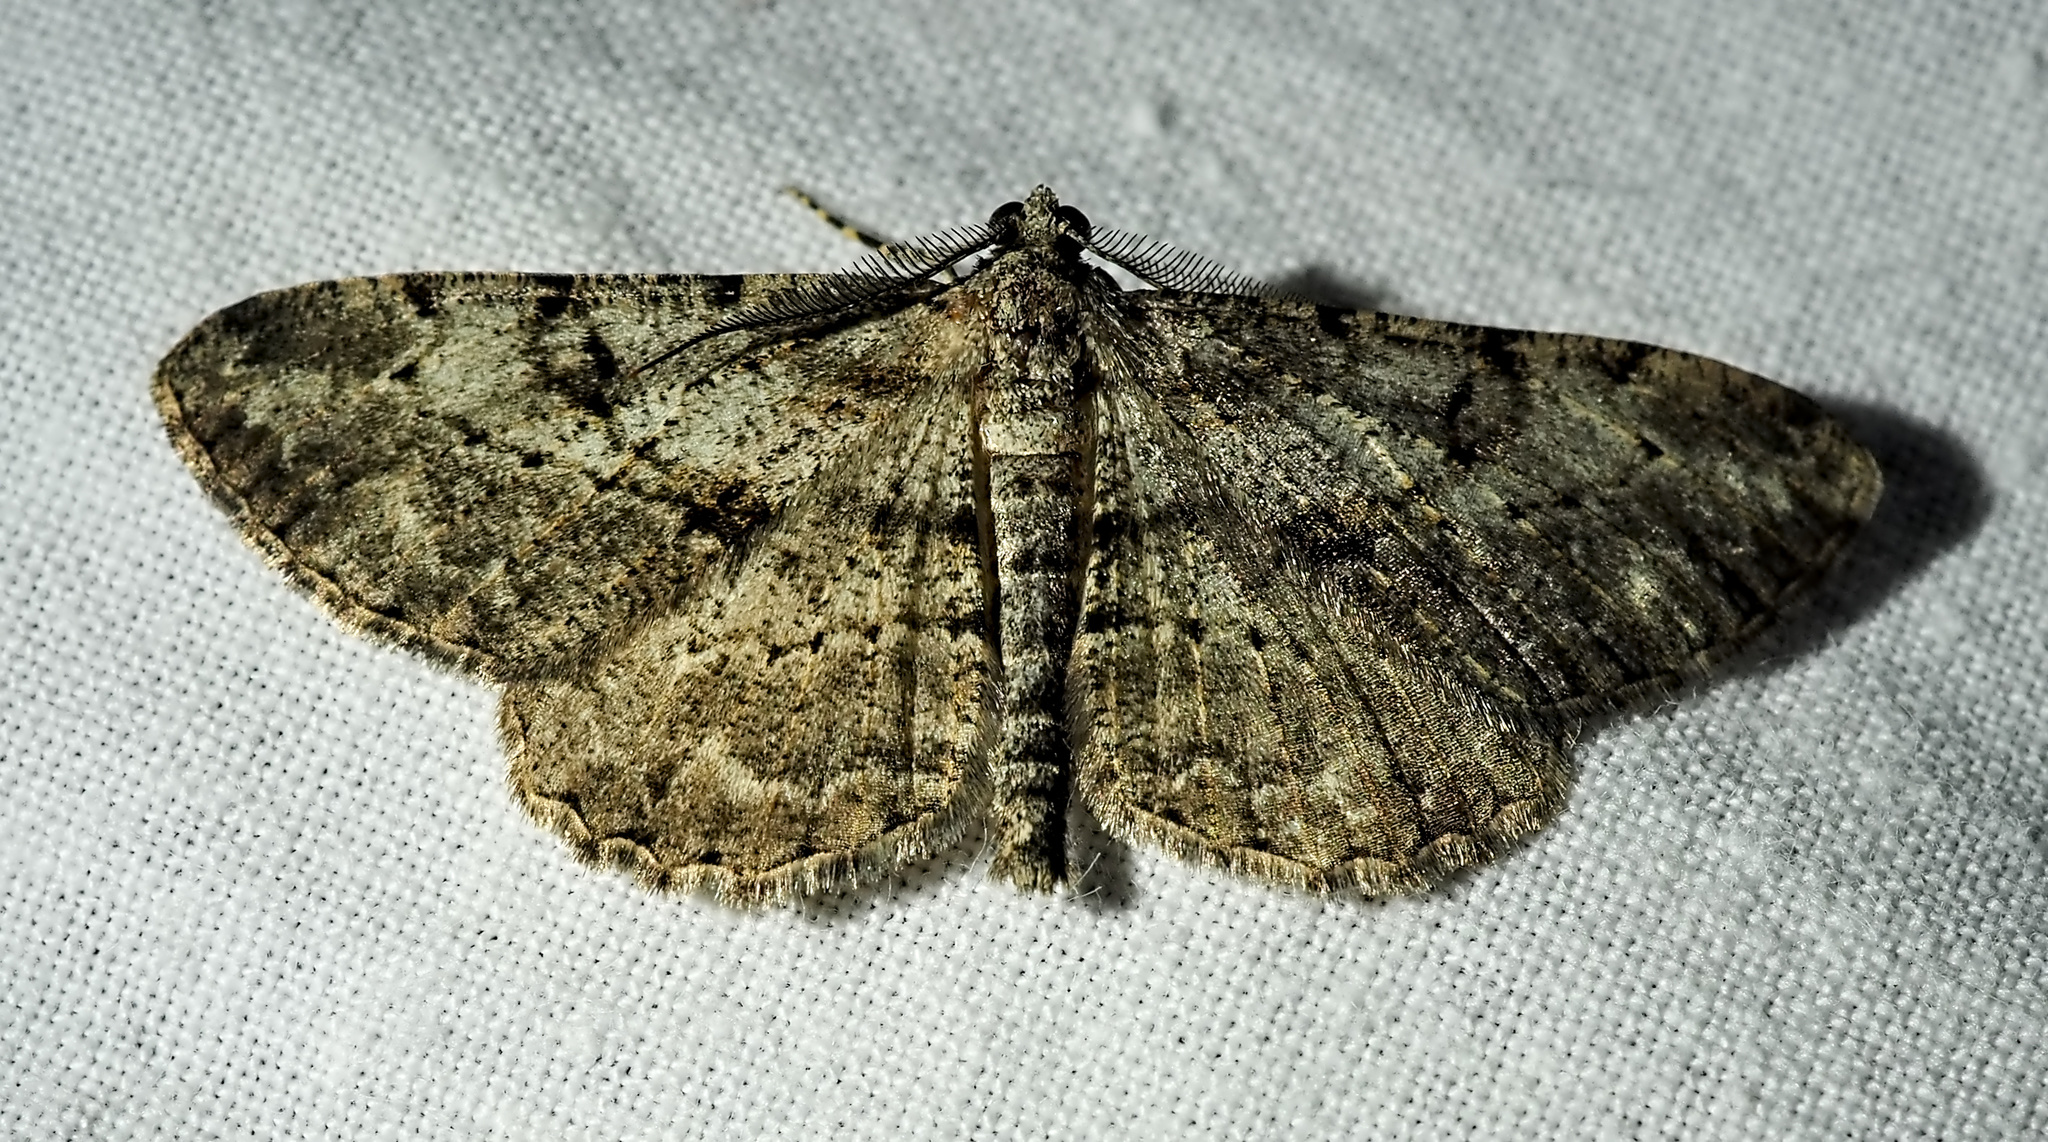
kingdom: Animalia
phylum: Arthropoda
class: Insecta
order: Lepidoptera
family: Geometridae
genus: Peribatodes
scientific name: Peribatodes rhomboidaria
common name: Willow beauty
